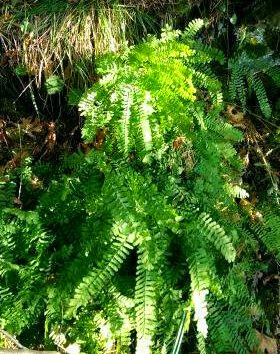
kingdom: Plantae
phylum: Tracheophyta
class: Polypodiopsida
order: Polypodiales
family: Pteridaceae
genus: Adiantum
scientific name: Adiantum aleuticum
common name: Aleutian maidenhair fern
